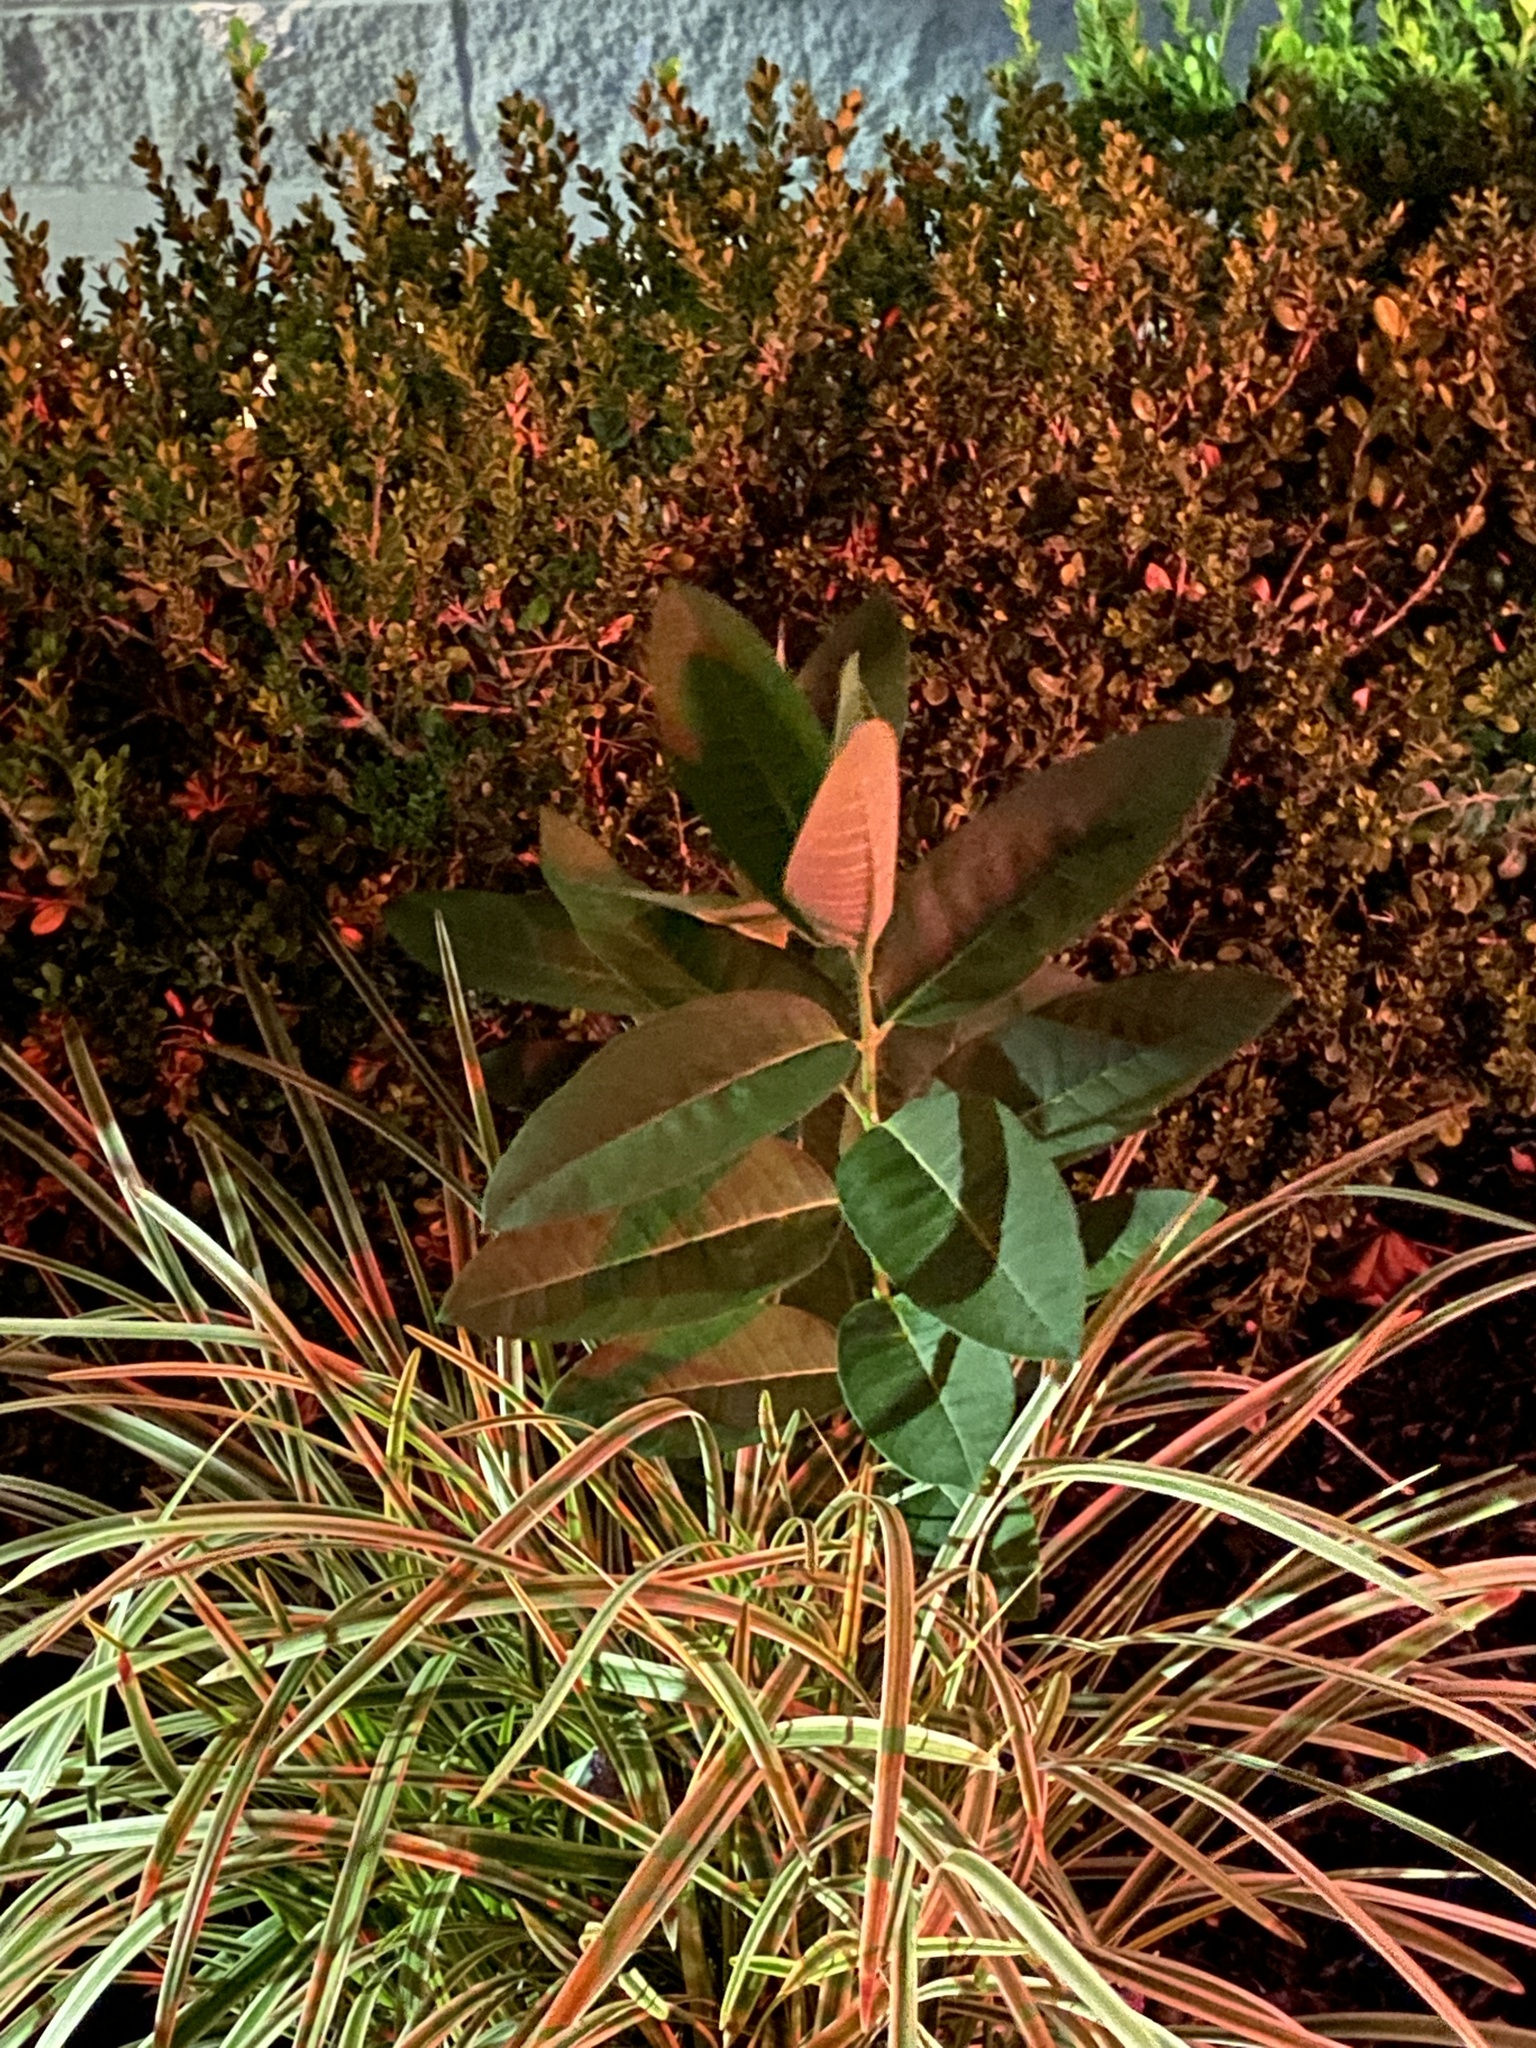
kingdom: Plantae
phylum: Tracheophyta
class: Magnoliopsida
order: Gentianales
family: Apocynaceae
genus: Asclepias
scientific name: Asclepias syriaca
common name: Common milkweed
